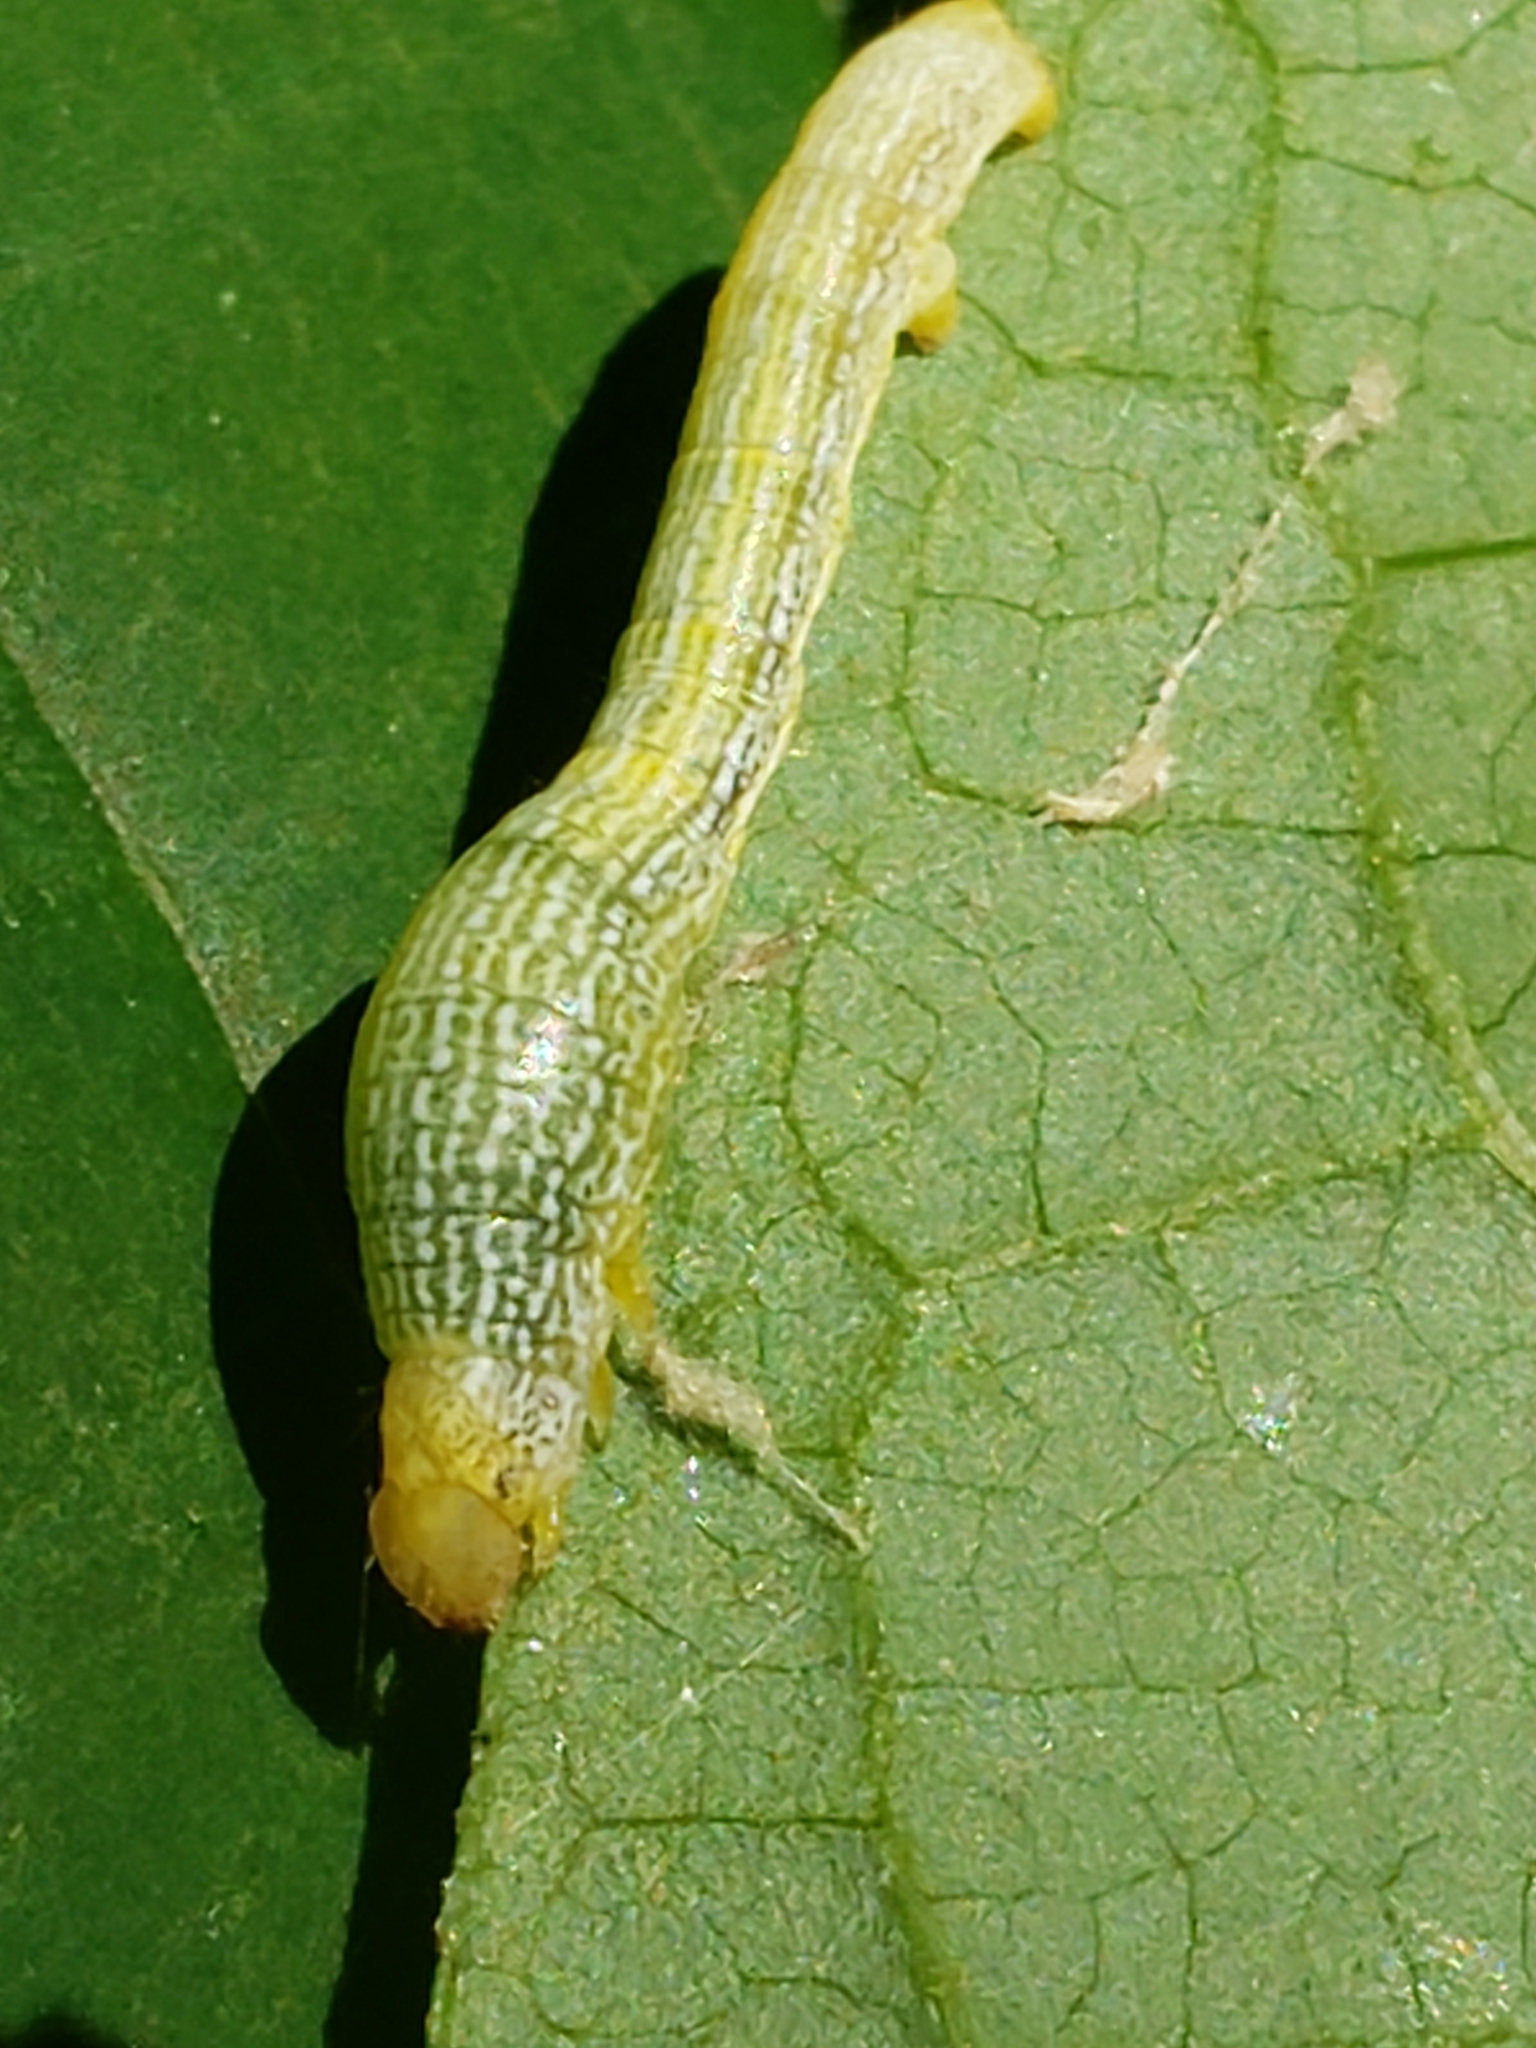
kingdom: Animalia
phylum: Arthropoda
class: Insecta
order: Lepidoptera
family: Geometridae
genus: Epimecis
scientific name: Epimecis hortaria
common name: Tulip-tree beauty
